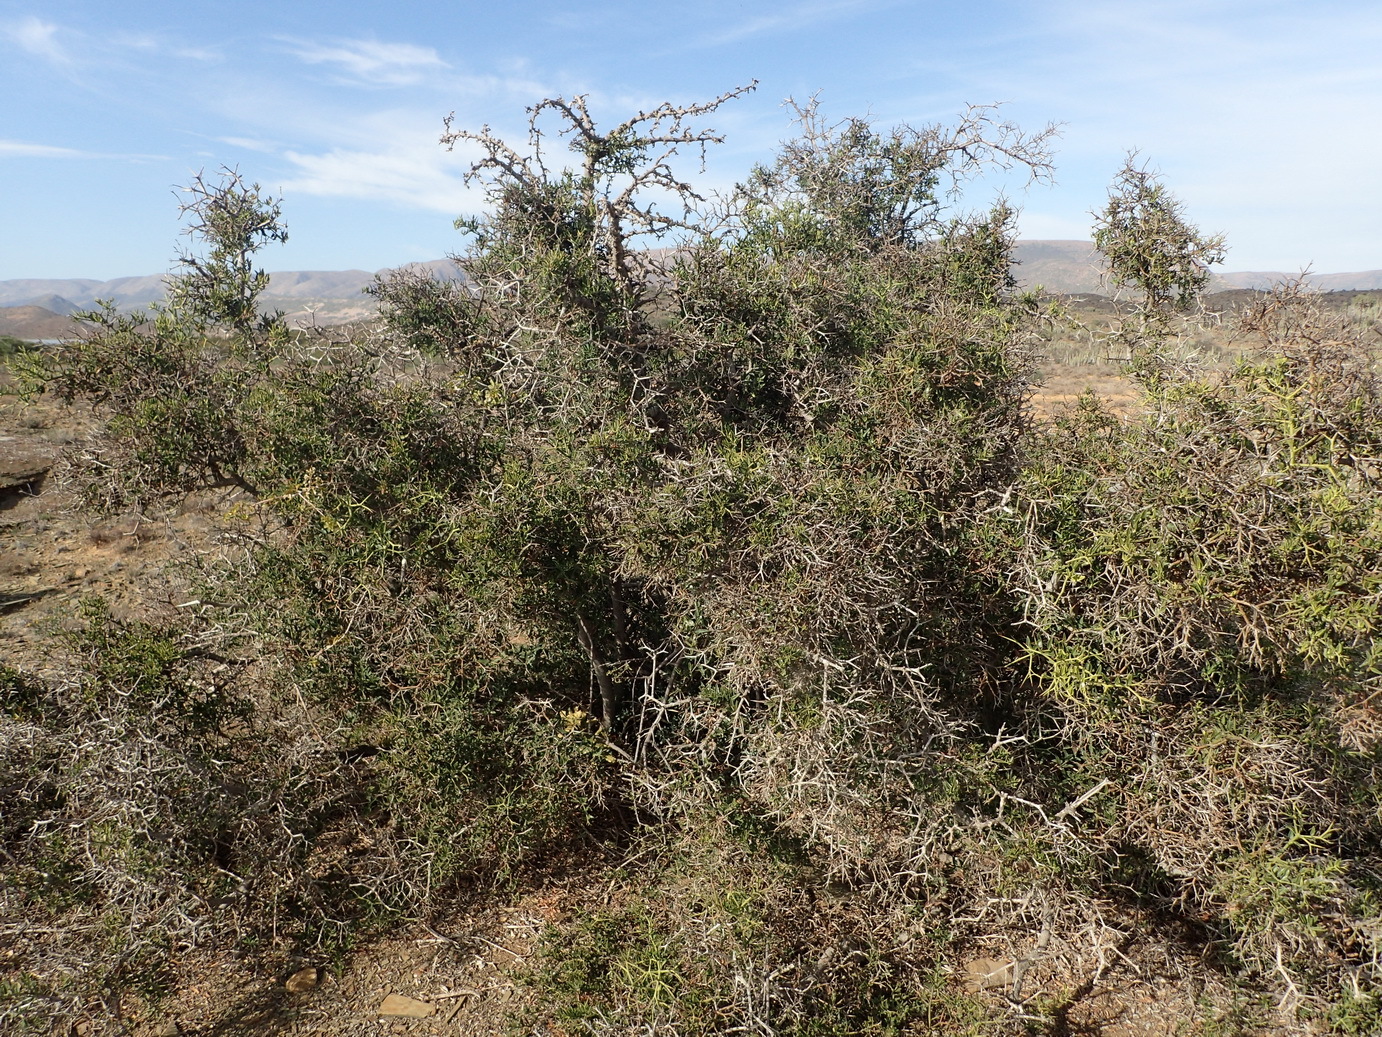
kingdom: Plantae
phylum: Tracheophyta
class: Magnoliopsida
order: Gentianales
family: Apocynaceae
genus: Carissa
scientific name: Carissa haematocarpa
